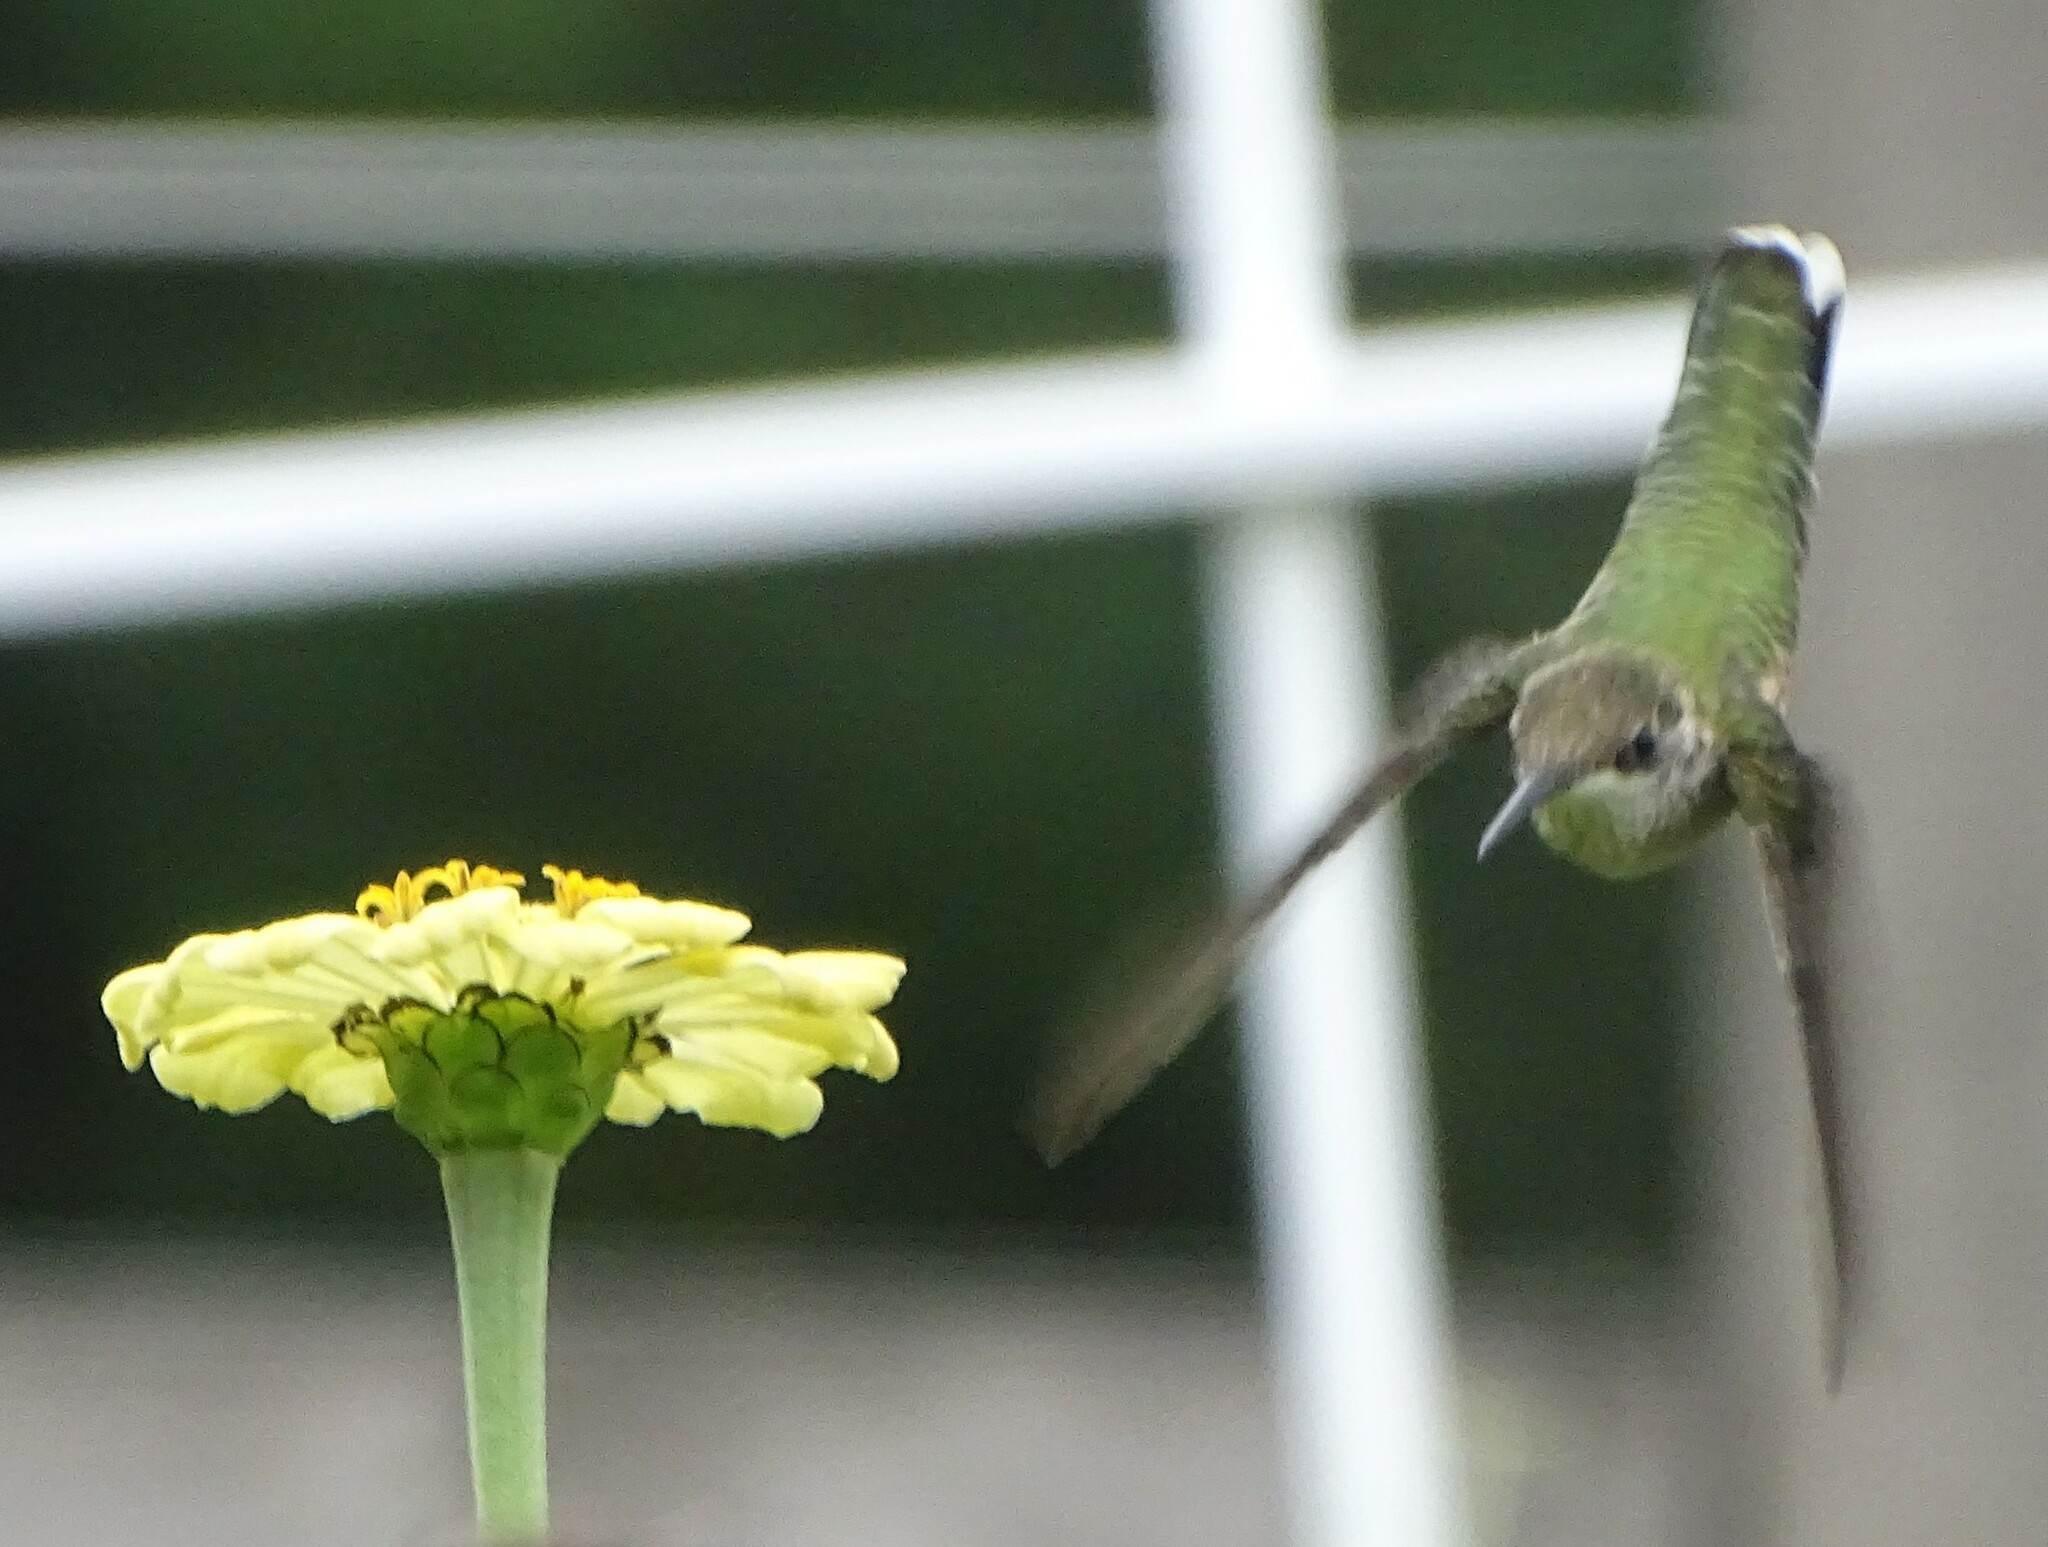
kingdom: Animalia
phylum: Chordata
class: Aves
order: Apodiformes
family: Trochilidae
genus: Archilochus
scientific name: Archilochus colubris
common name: Ruby-throated hummingbird
